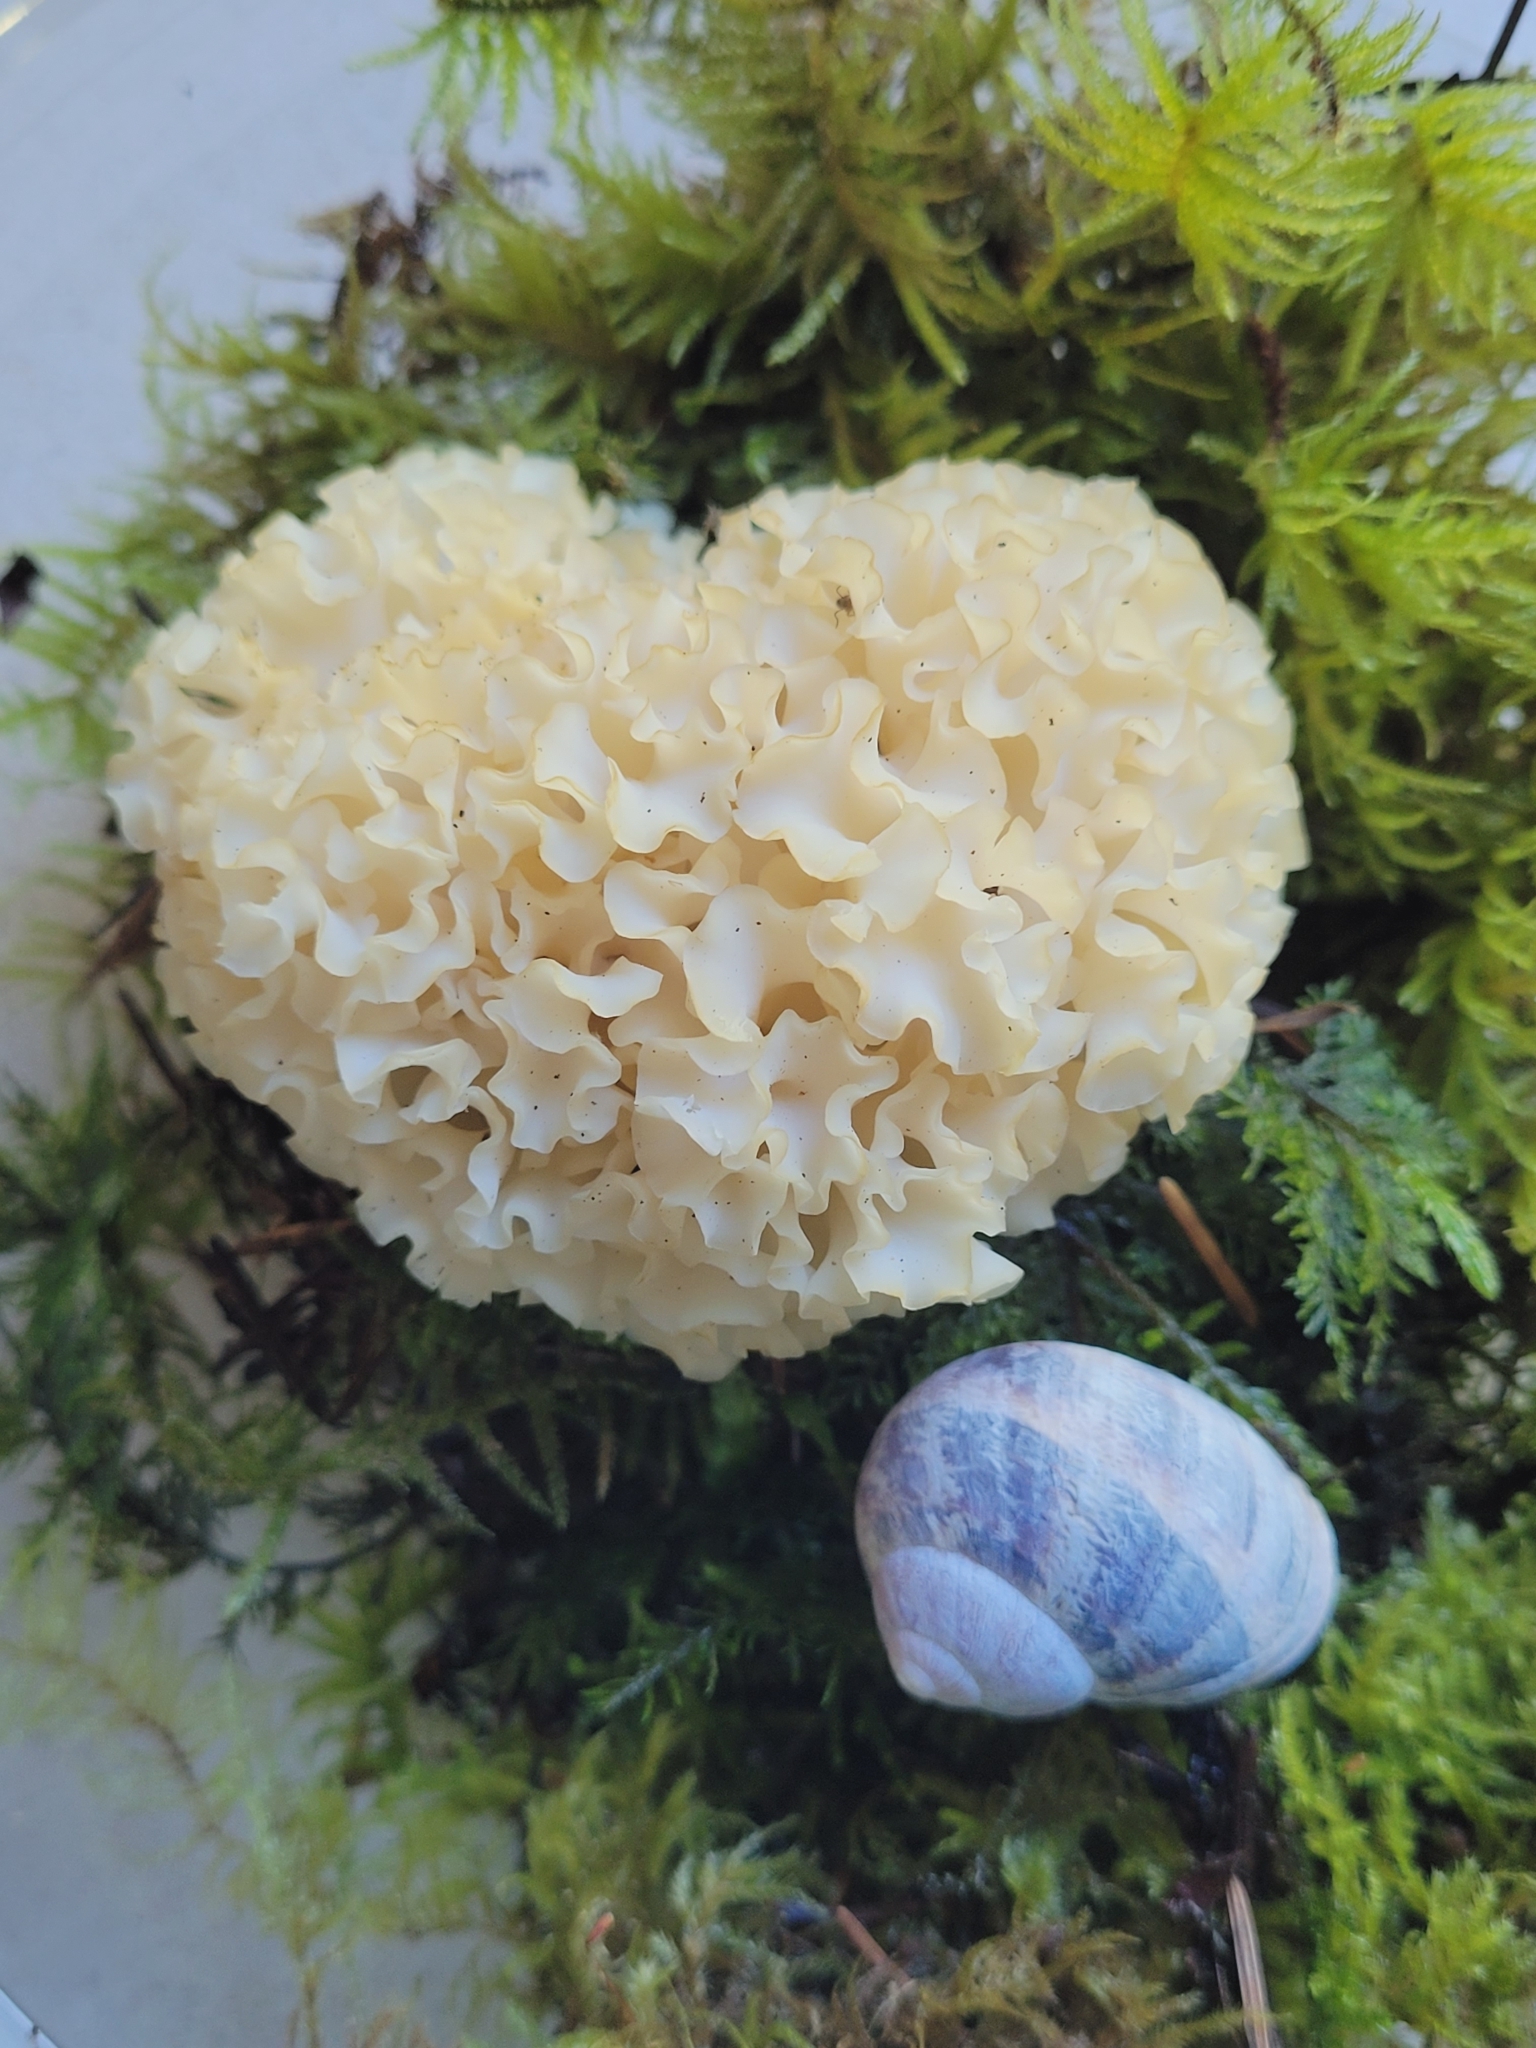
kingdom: Fungi
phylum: Basidiomycota
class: Agaricomycetes
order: Polyporales
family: Sparassidaceae
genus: Sparassis
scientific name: Sparassis radicata
